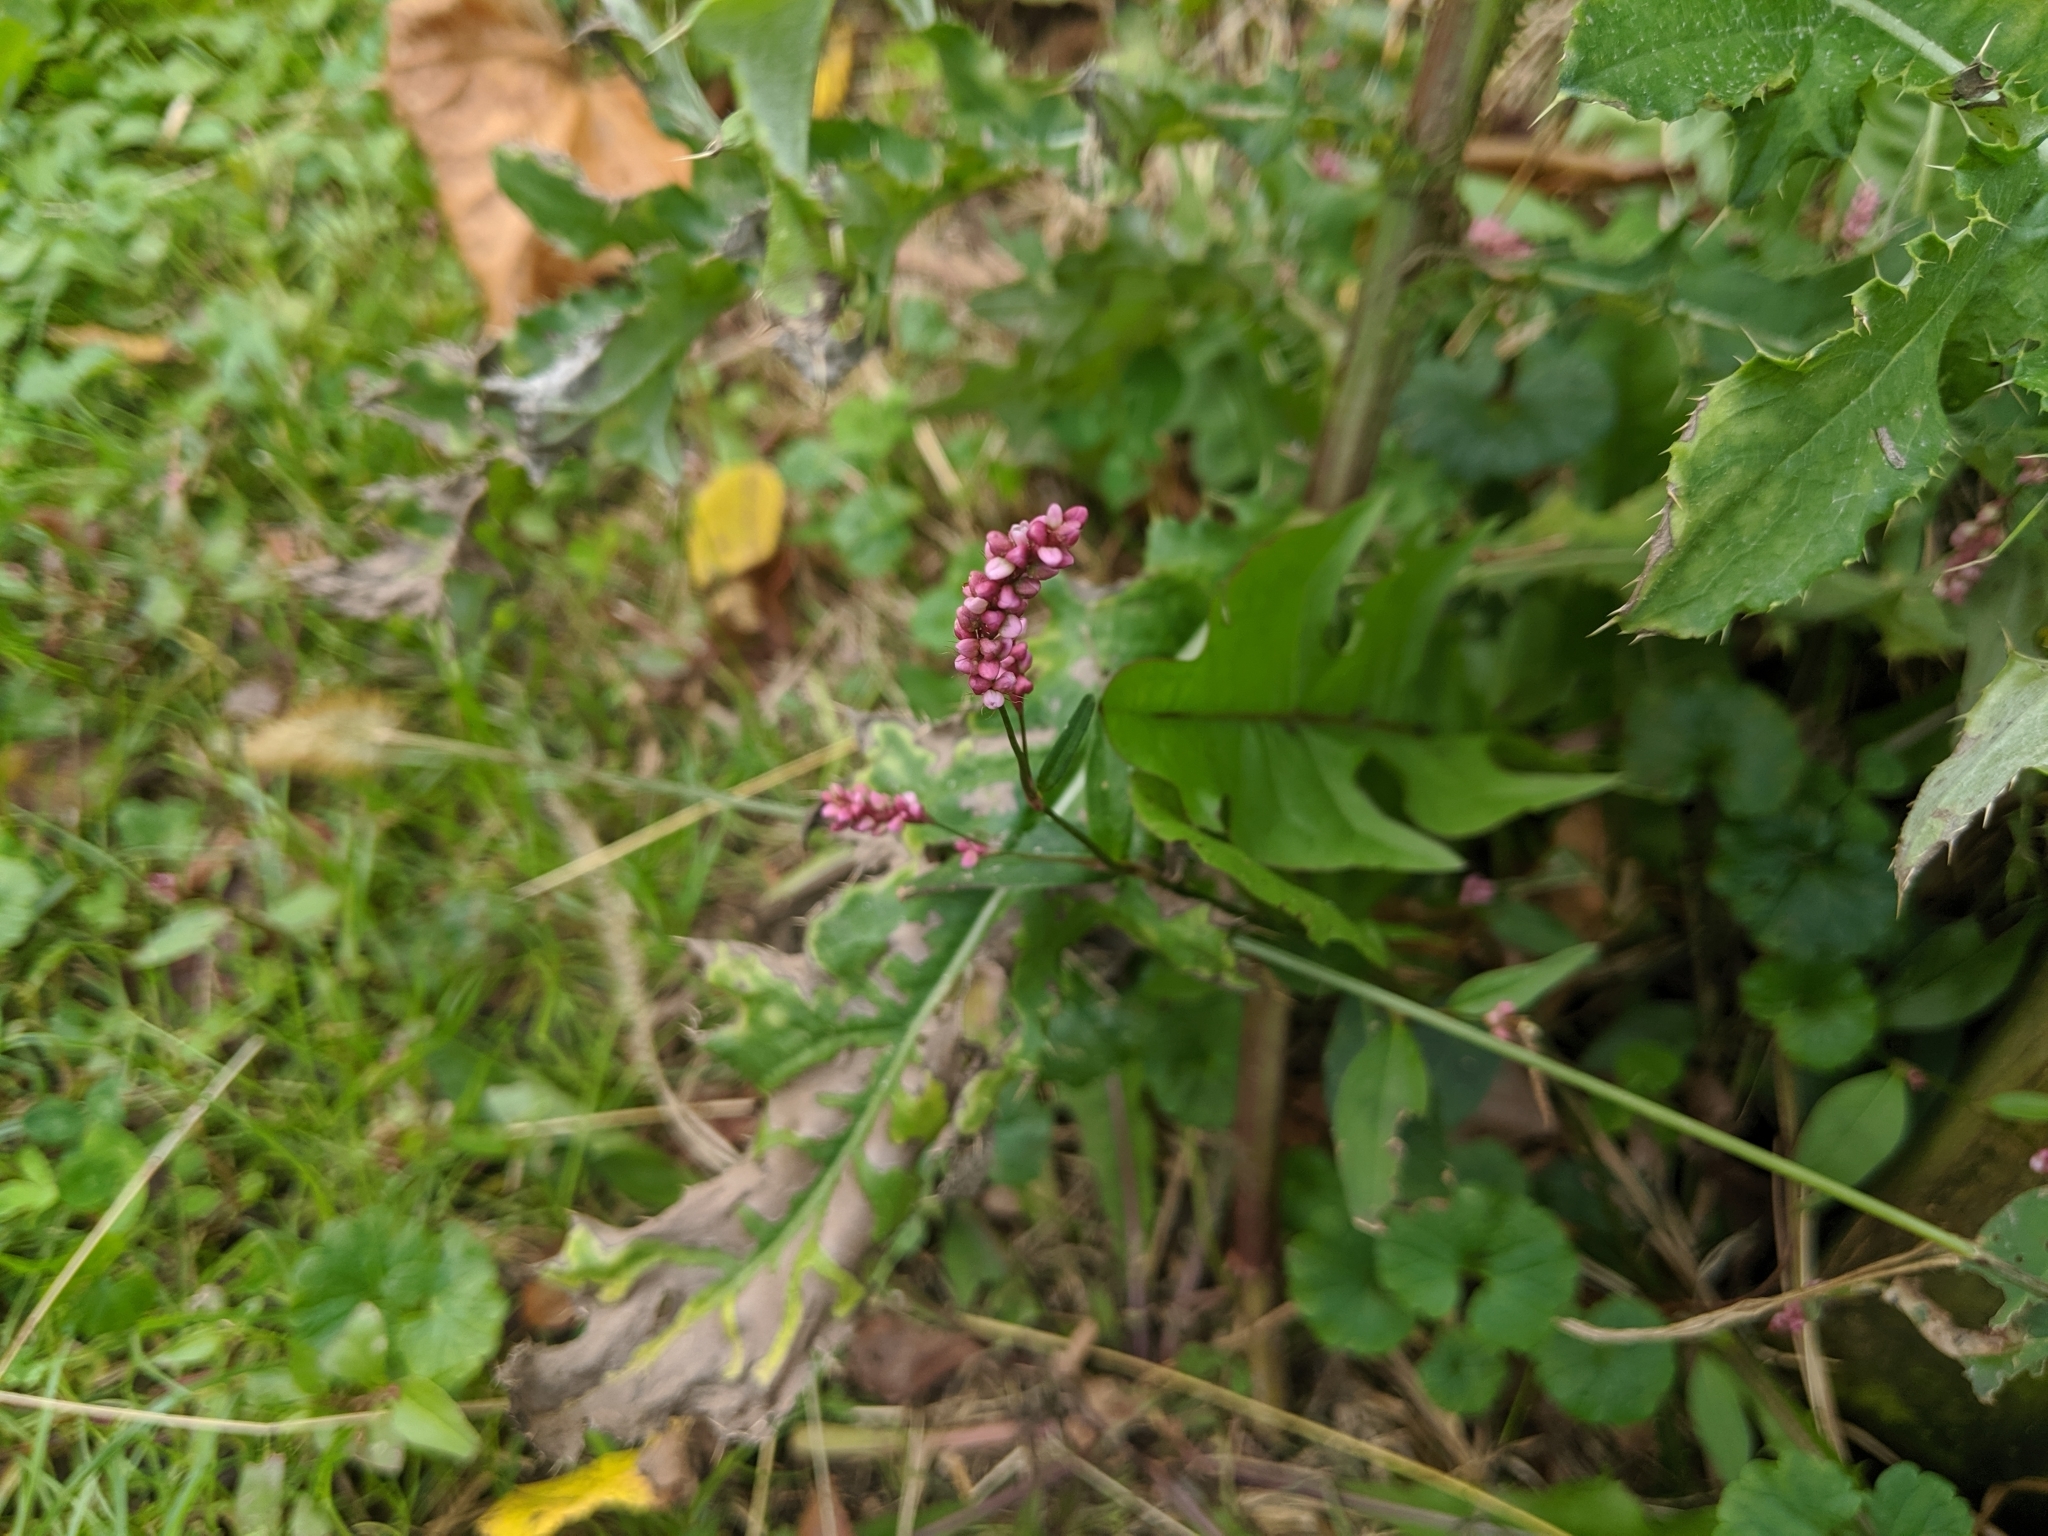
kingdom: Plantae
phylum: Tracheophyta
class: Magnoliopsida
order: Caryophyllales
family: Polygonaceae
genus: Persicaria
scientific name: Persicaria longiseta
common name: Bristly lady's-thumb
